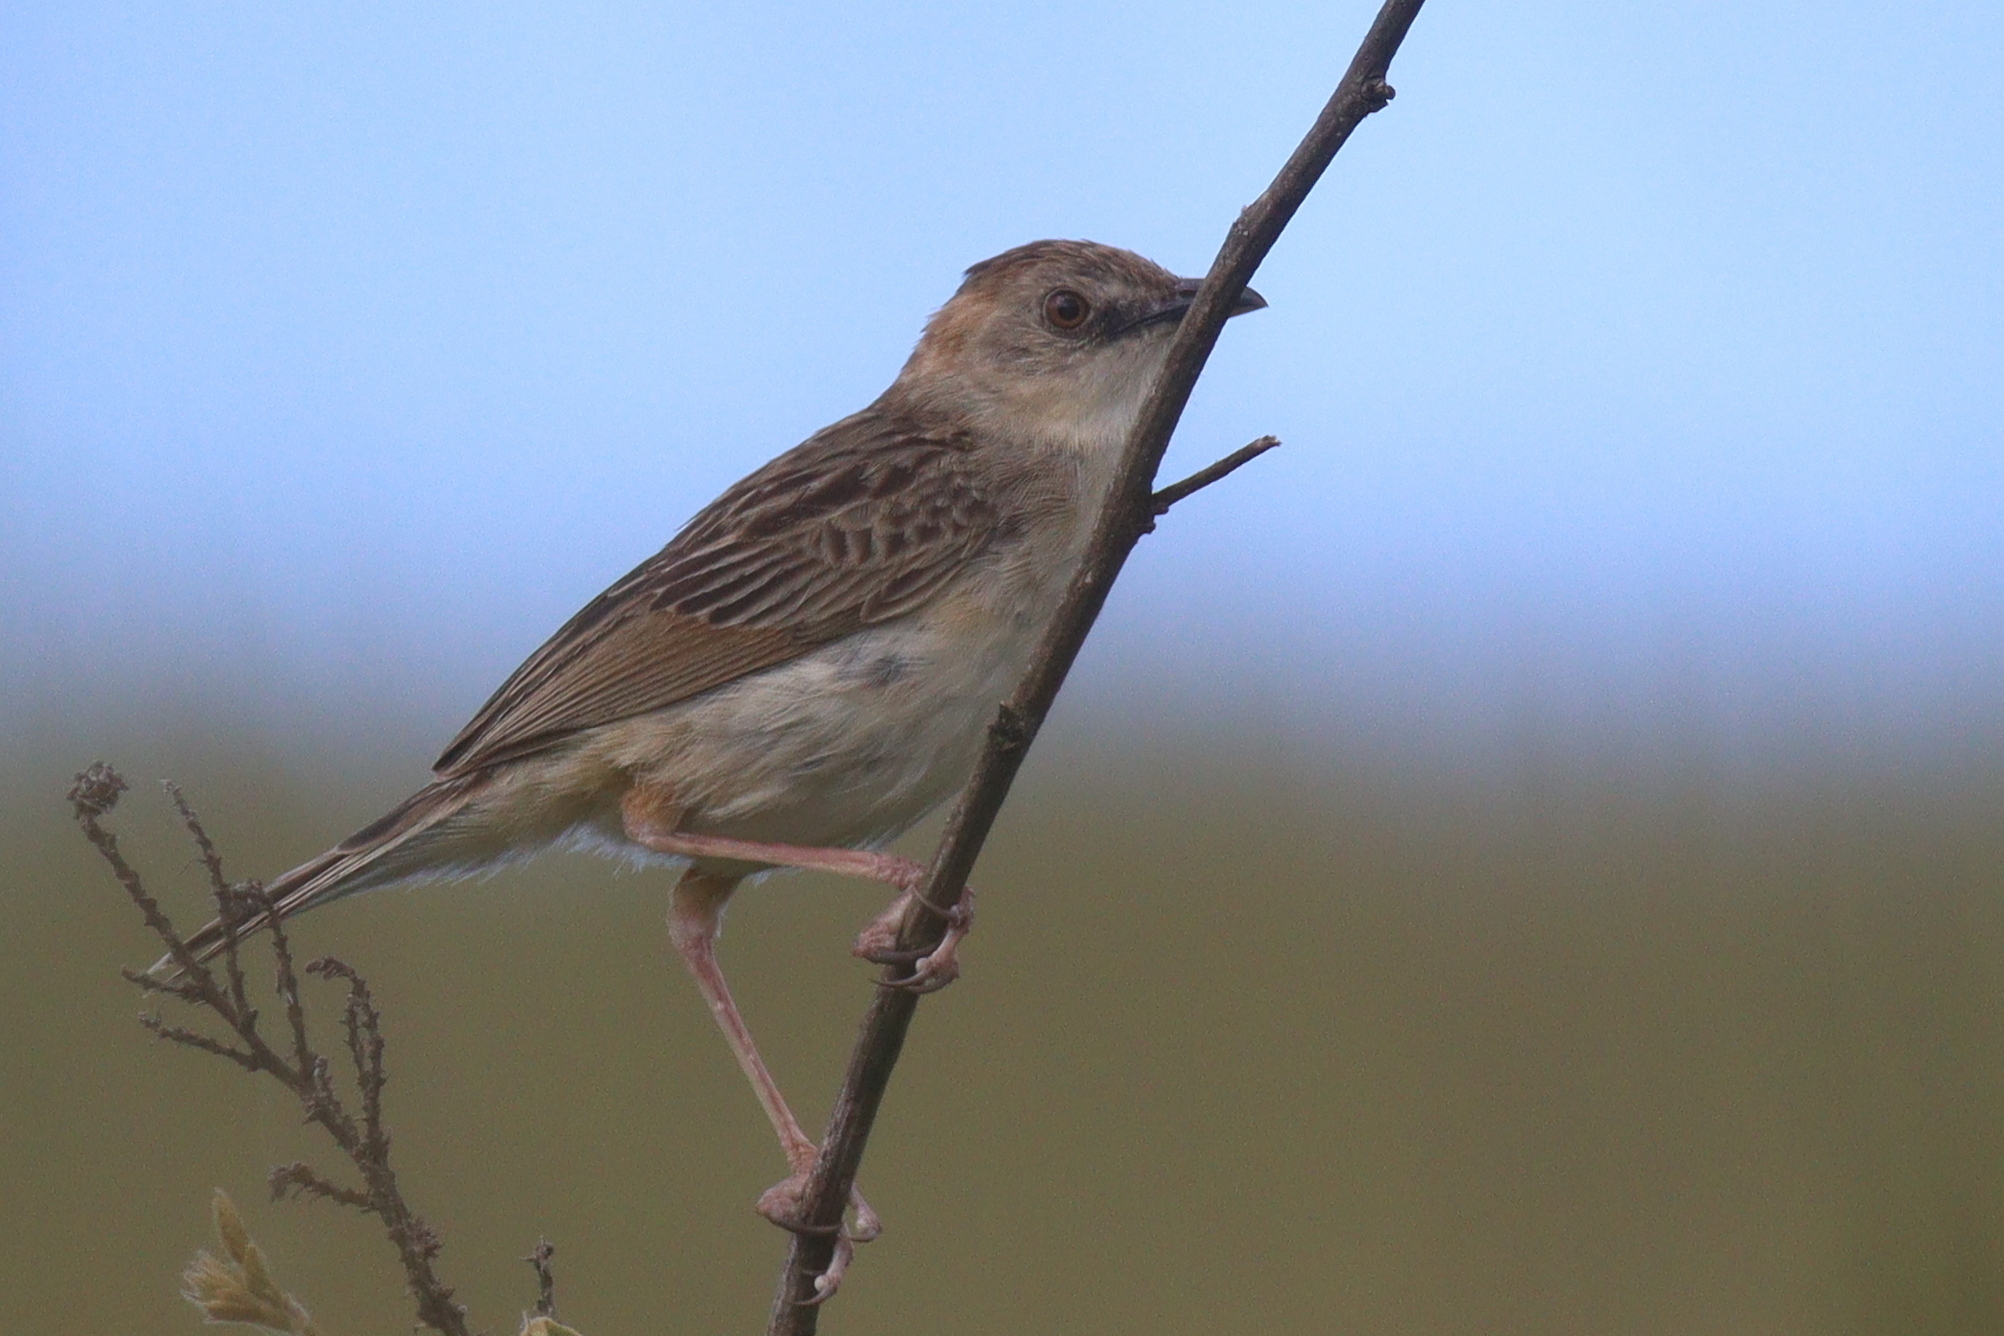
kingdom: Animalia
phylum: Chordata
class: Aves
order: Passeriformes
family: Cisticolidae
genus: Cisticola
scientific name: Cisticola natalensis
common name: Croaking cisticola
